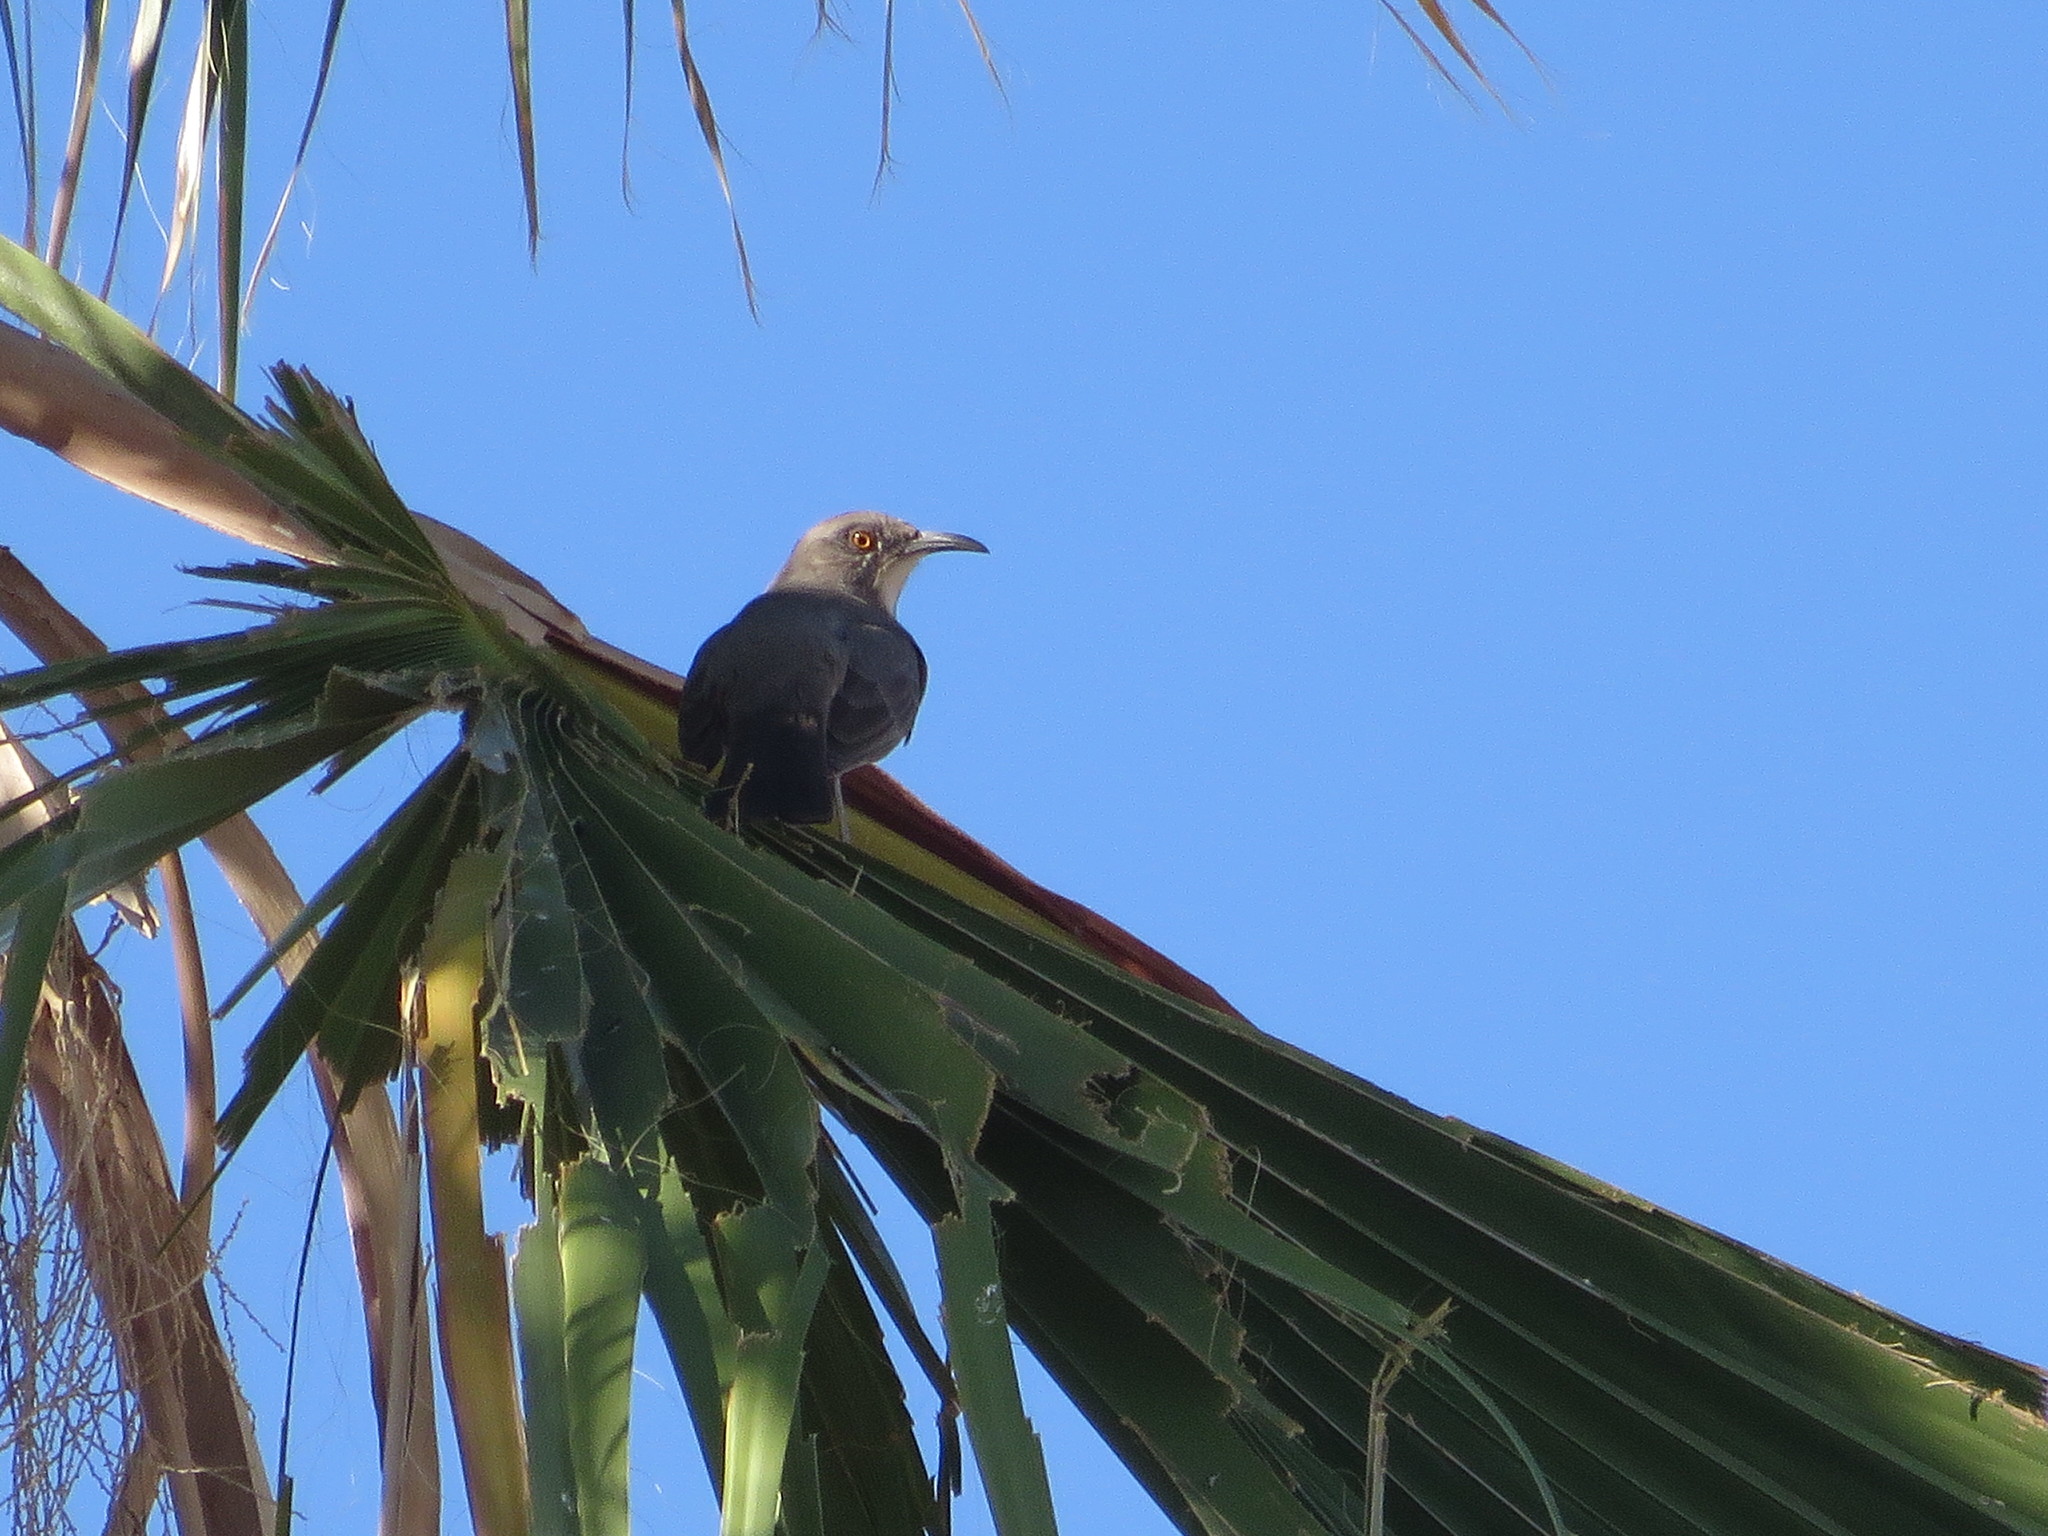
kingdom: Animalia
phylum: Chordata
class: Aves
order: Passeriformes
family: Mimidae
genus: Toxostoma
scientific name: Toxostoma curvirostre
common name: Curve-billed thrasher
